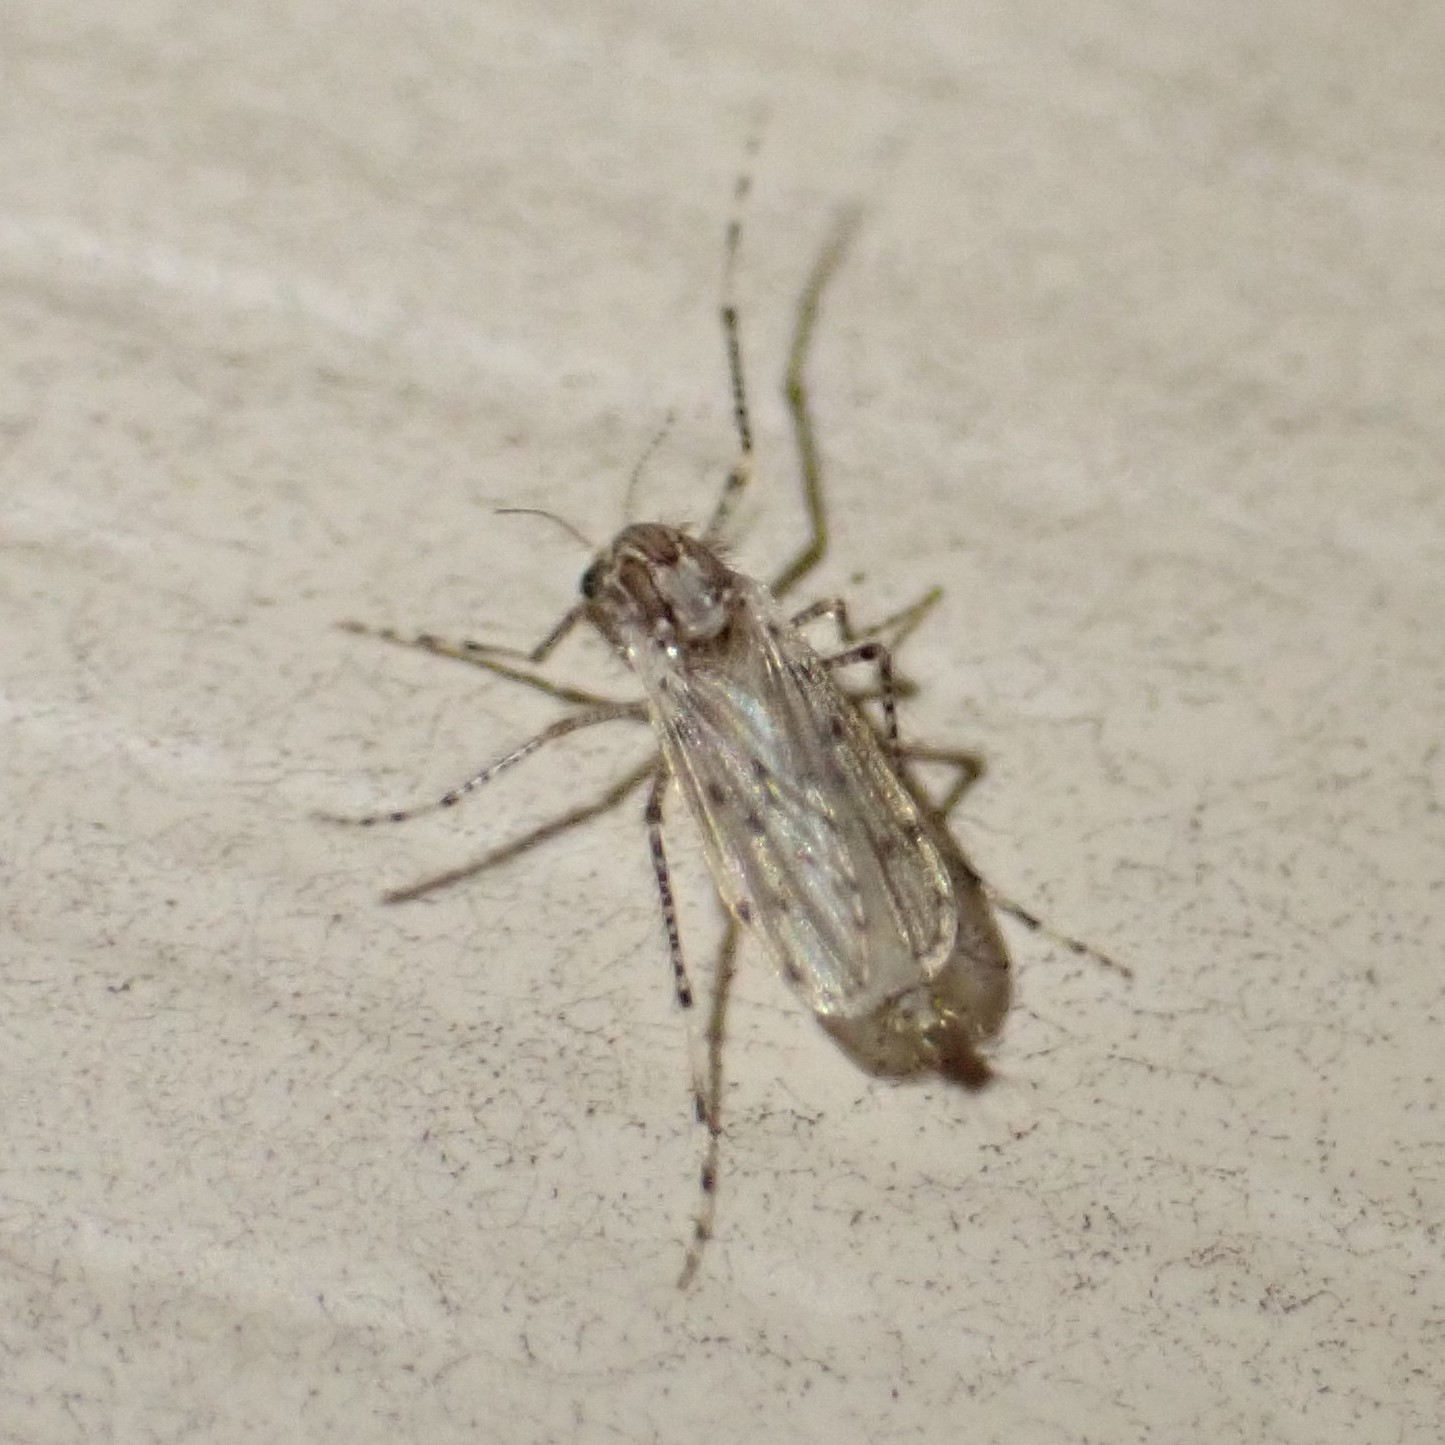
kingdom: Animalia
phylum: Arthropoda
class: Insecta
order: Diptera
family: Chaoboridae
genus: Chaoborus
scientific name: Chaoborus punctipennis
